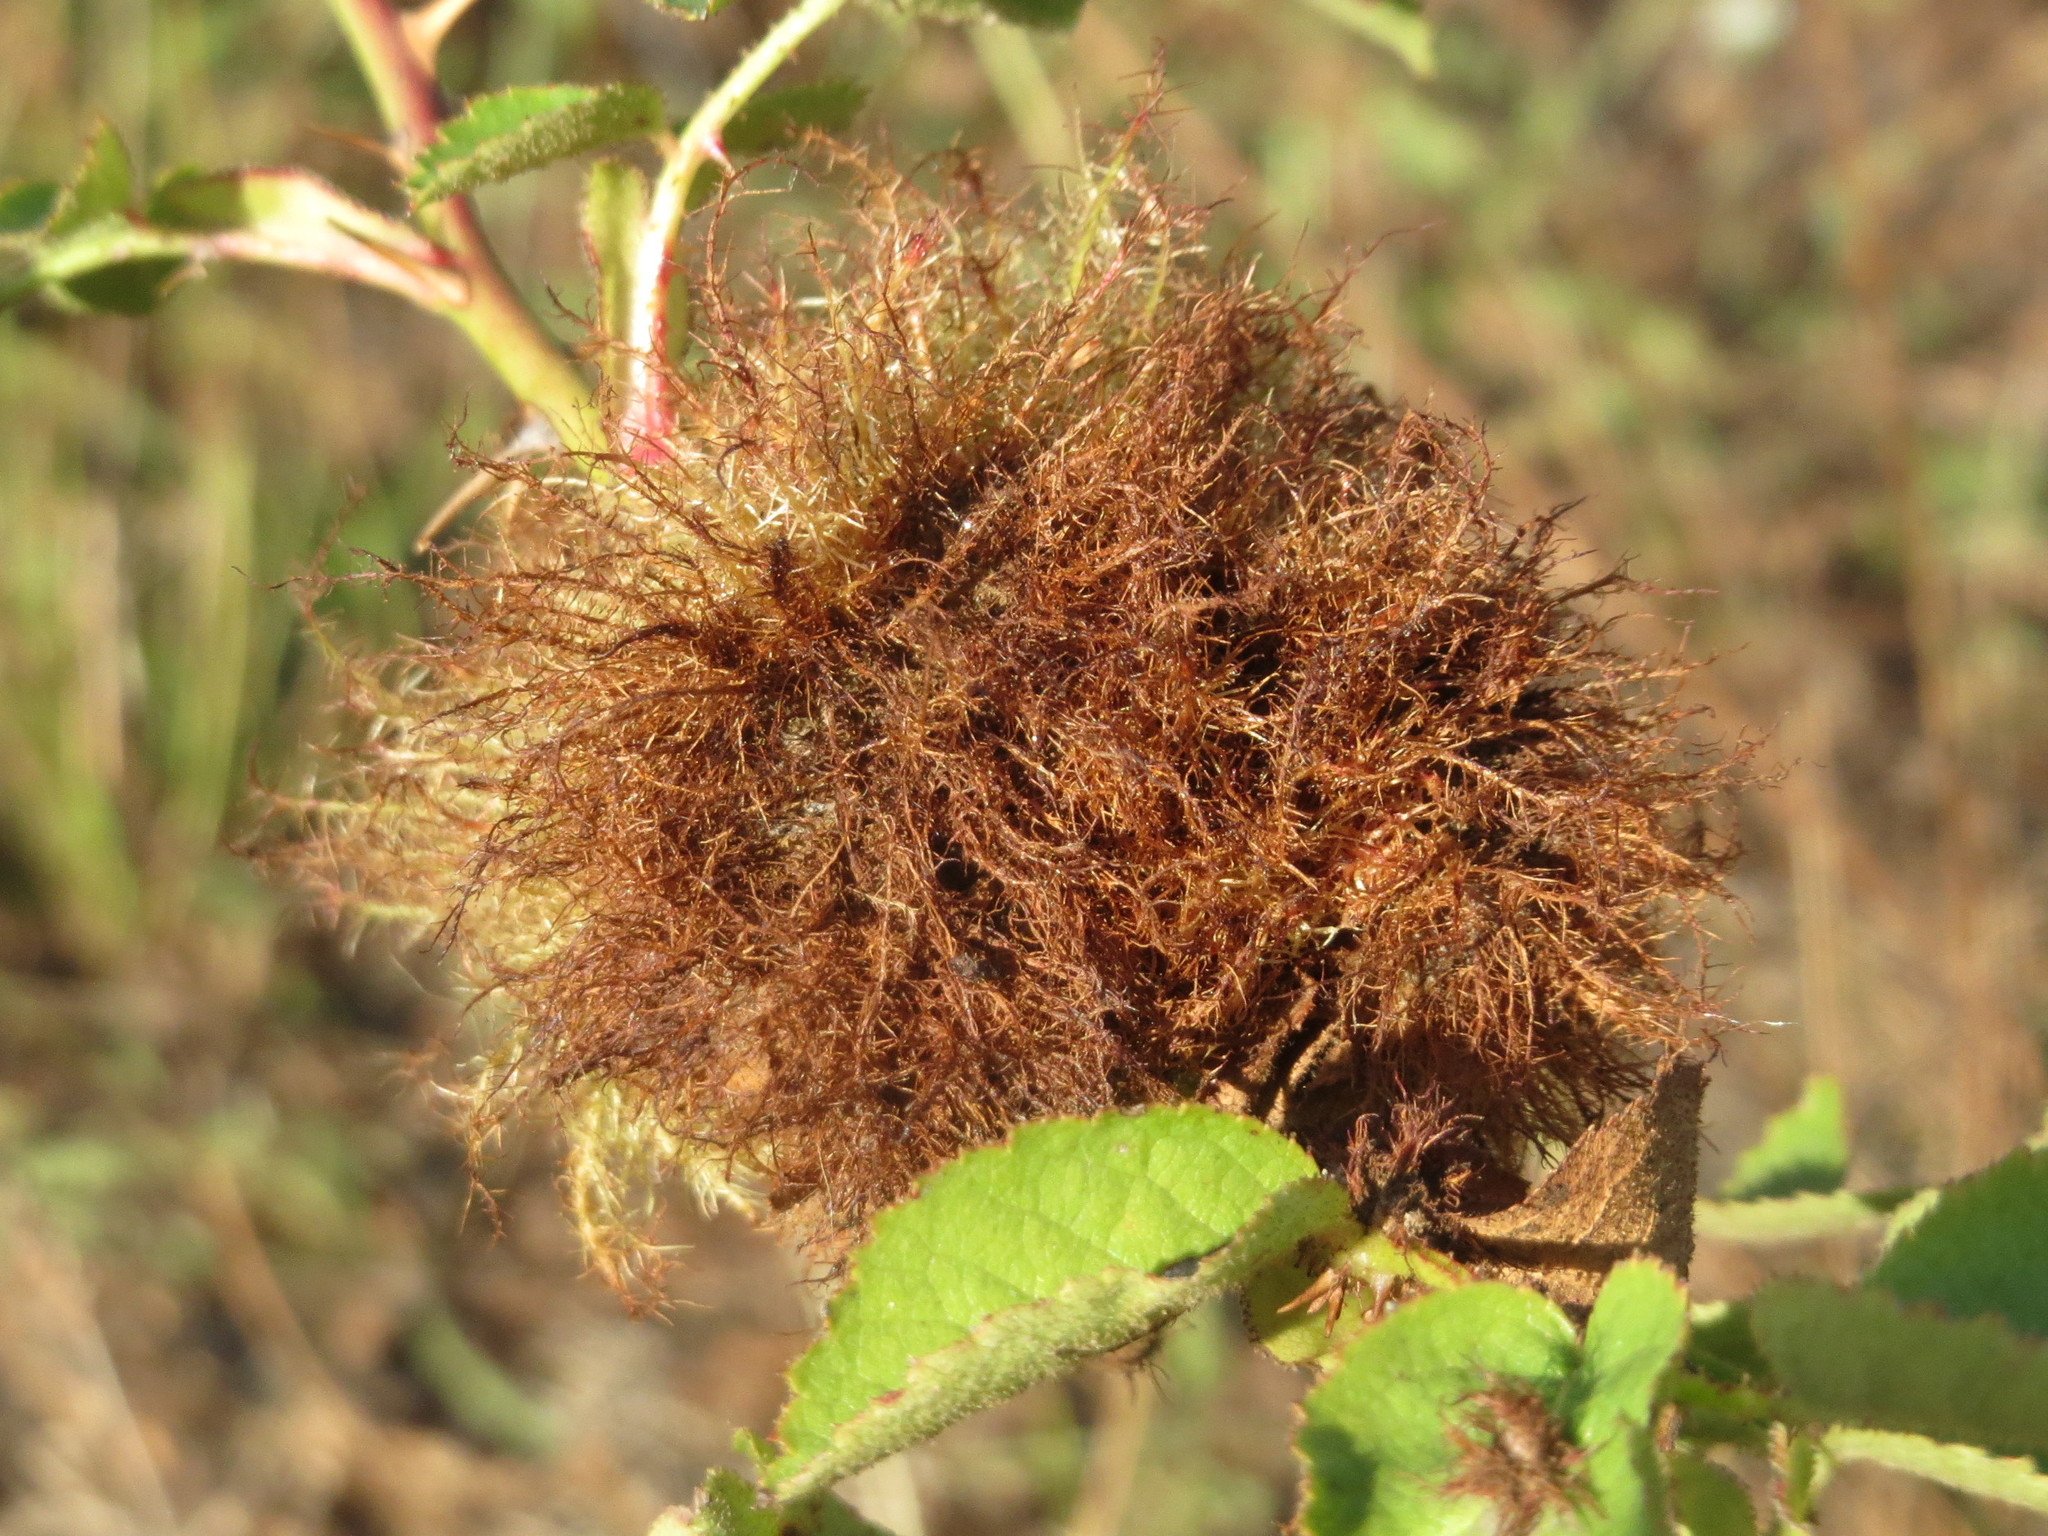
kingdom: Animalia
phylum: Arthropoda
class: Insecta
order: Hymenoptera
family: Cynipidae
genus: Diplolepis
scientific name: Diplolepis rosae
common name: Bedeguar gall
